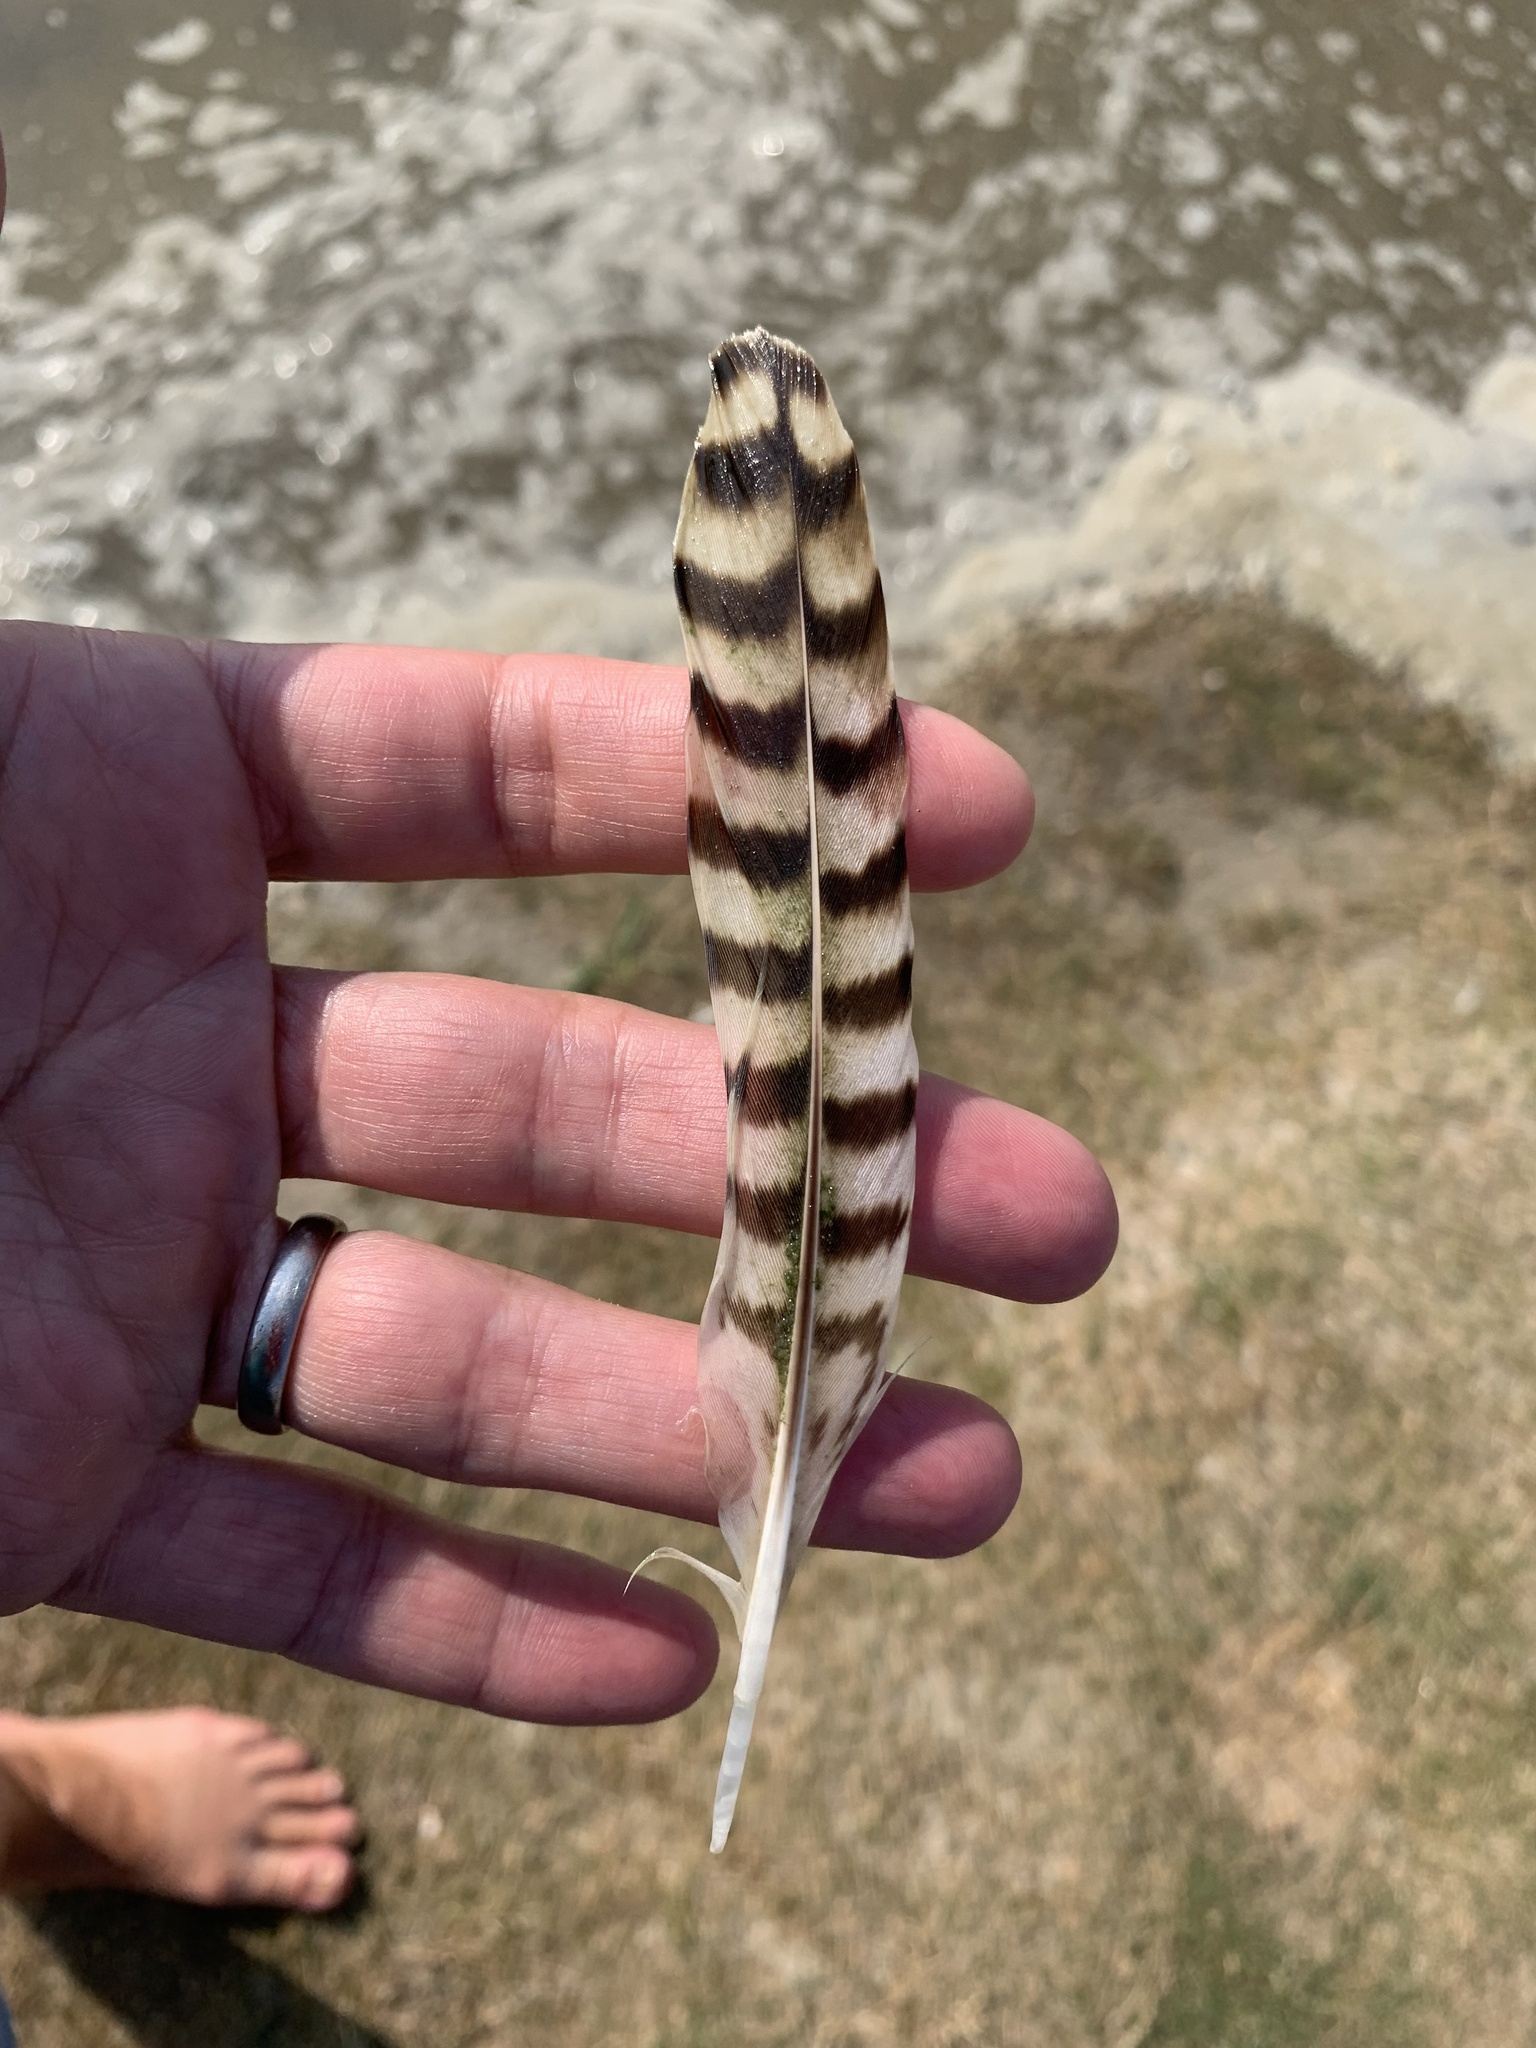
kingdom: Animalia
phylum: Chordata
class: Aves
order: Charadriiformes
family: Scolopacidae
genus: Numenius
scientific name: Numenius arquata
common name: Eurasian curlew
